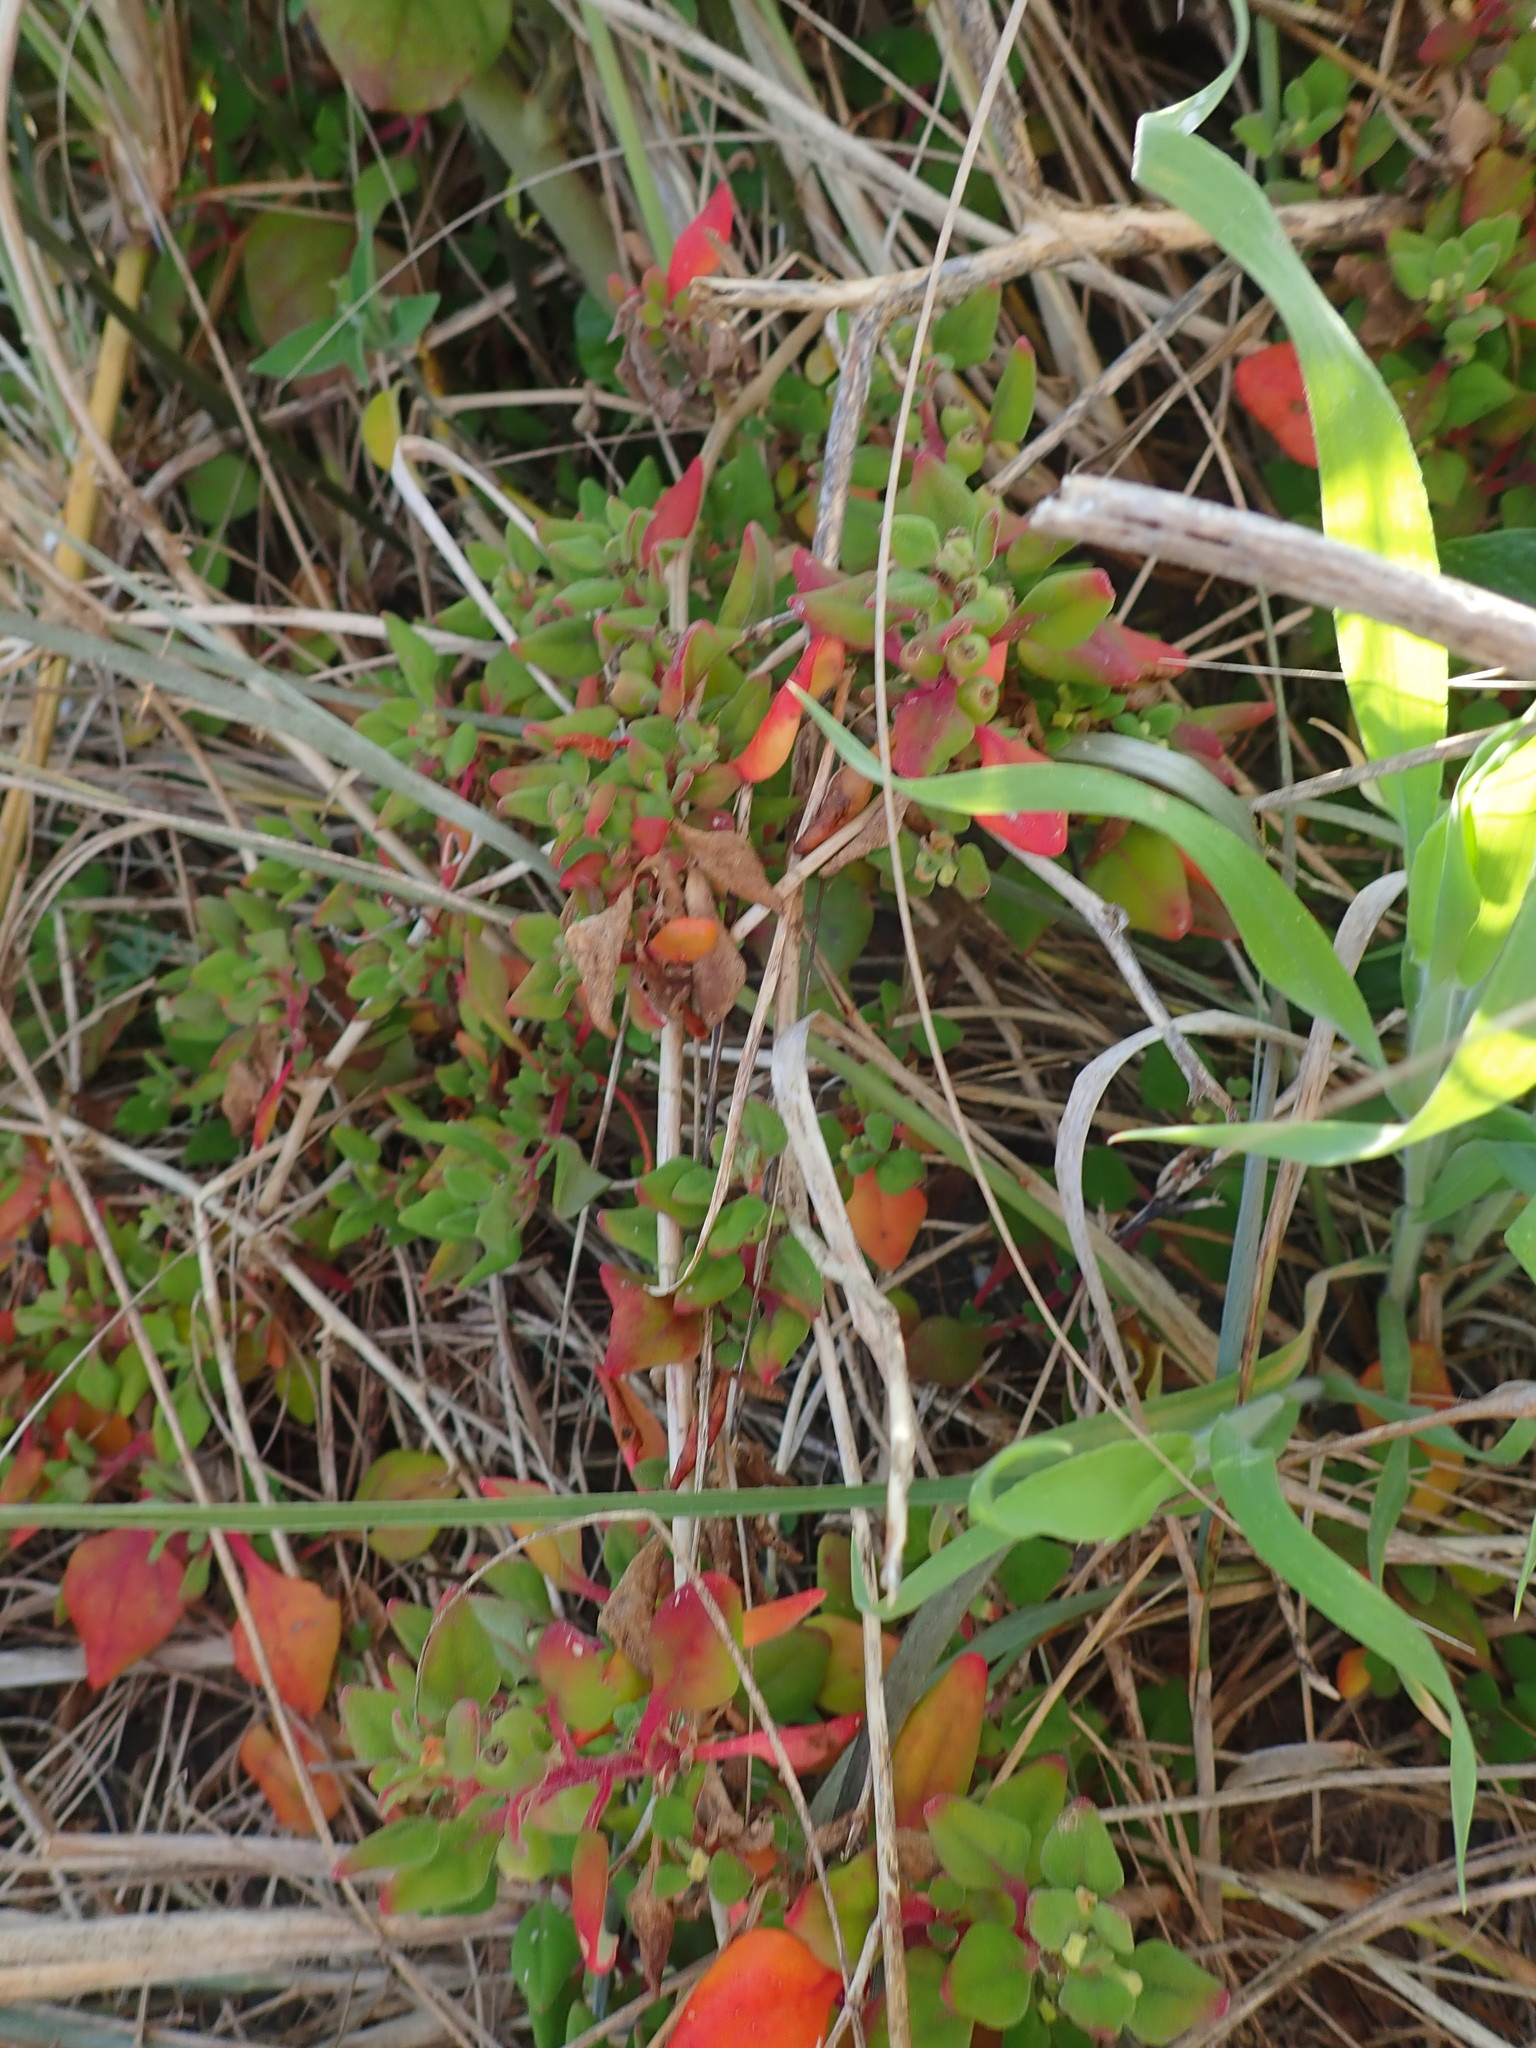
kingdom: Plantae
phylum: Tracheophyta
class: Magnoliopsida
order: Caryophyllales
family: Aizoaceae
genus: Tetragonia
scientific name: Tetragonia implexicoma
